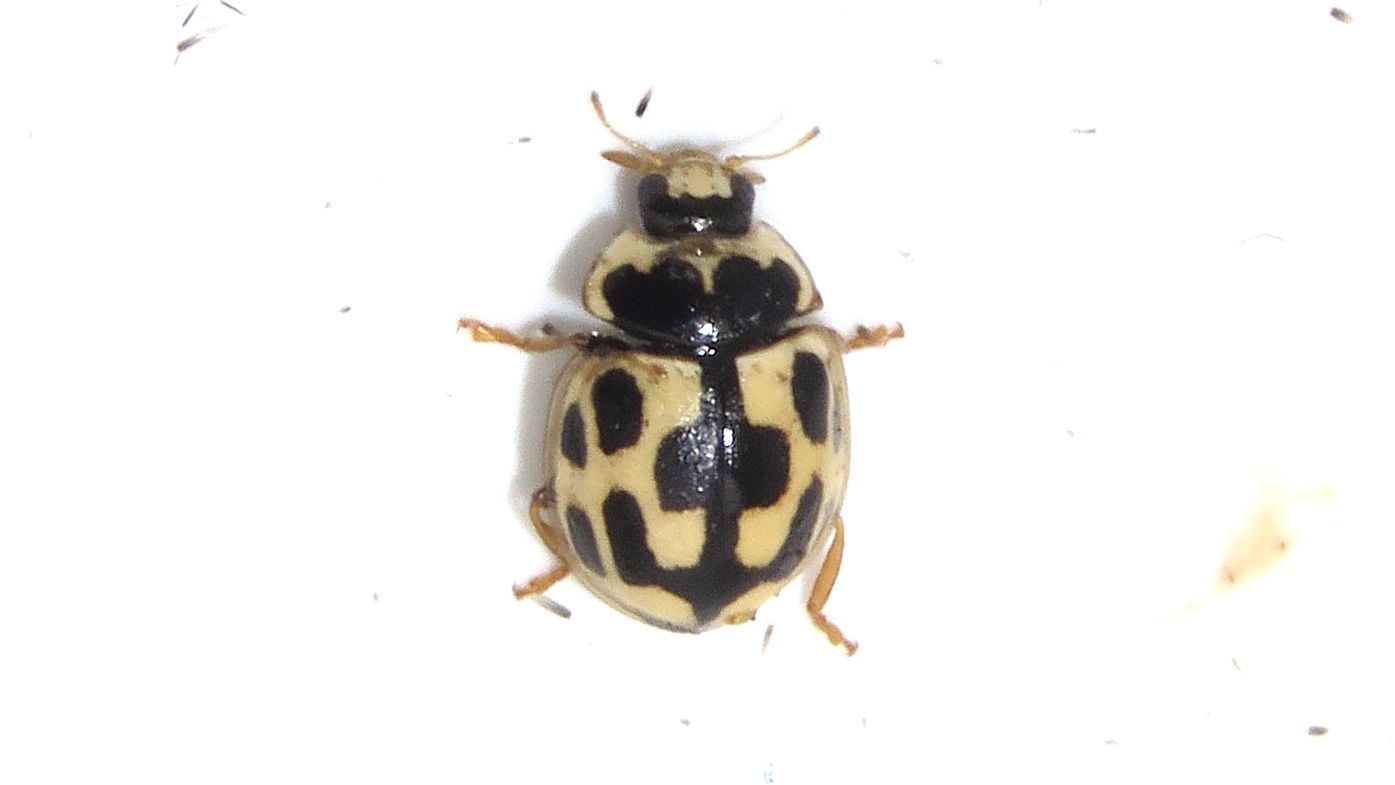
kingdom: Animalia
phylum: Arthropoda
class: Insecta
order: Coleoptera
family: Coccinellidae
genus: Propylaea
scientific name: Propylaea quatuordecimpunctata
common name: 14-spotted ladybird beetle
